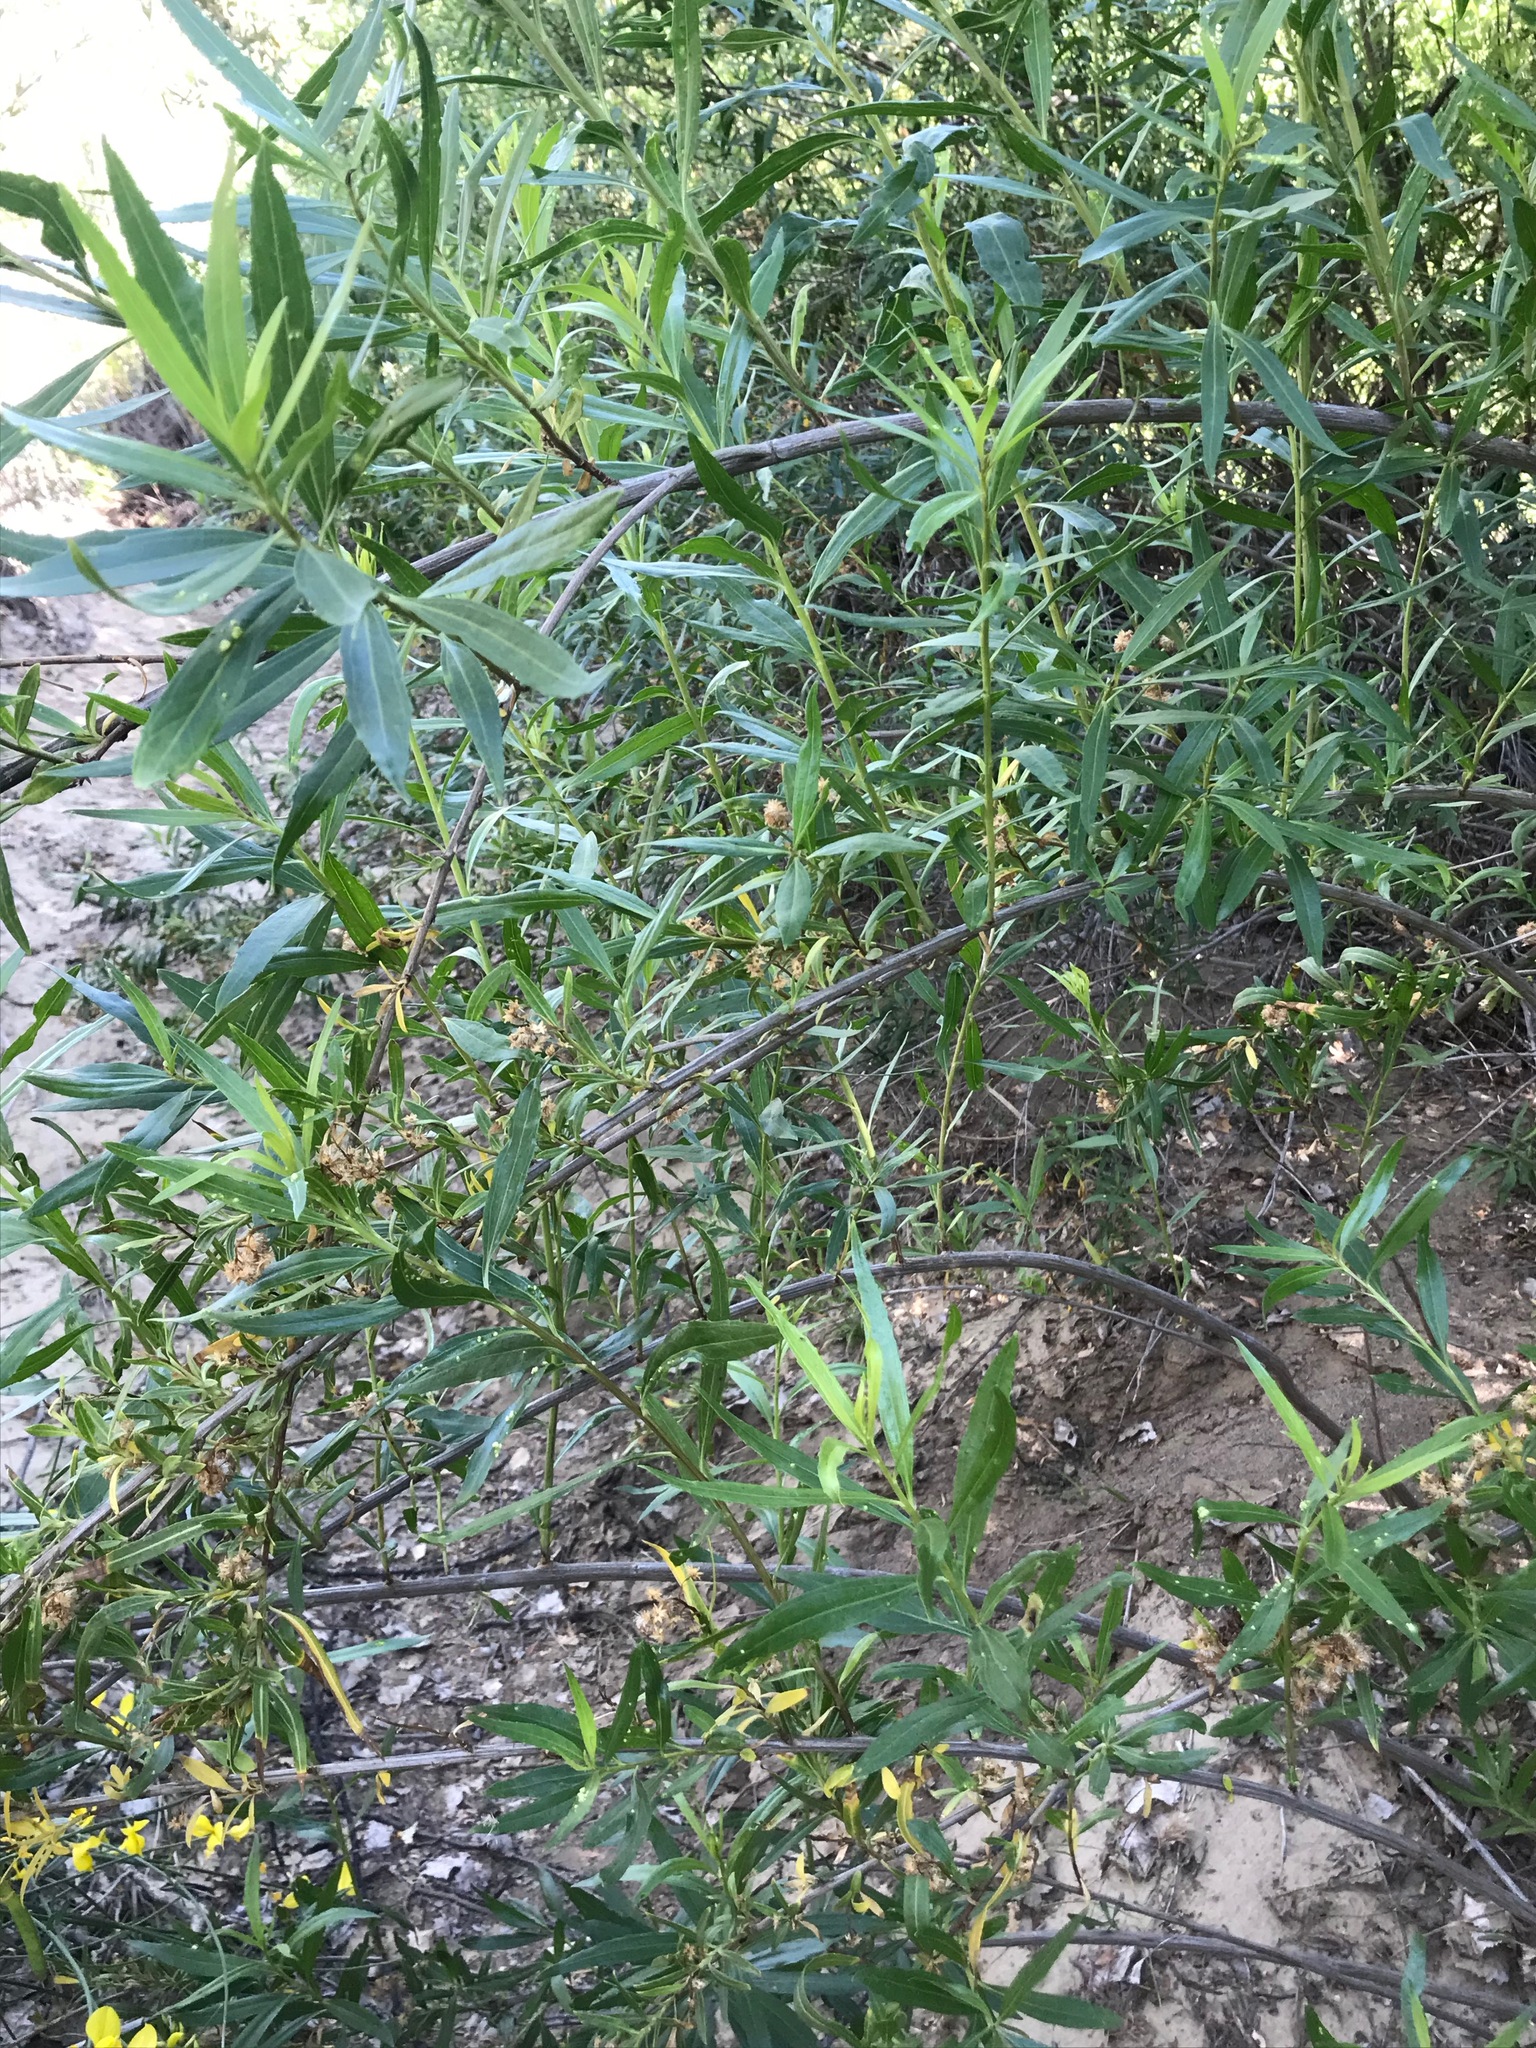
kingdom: Plantae
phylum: Tracheophyta
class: Magnoliopsida
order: Asterales
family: Asteraceae
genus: Baccharis
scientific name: Baccharis salicifolia
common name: Sticky baccharis
